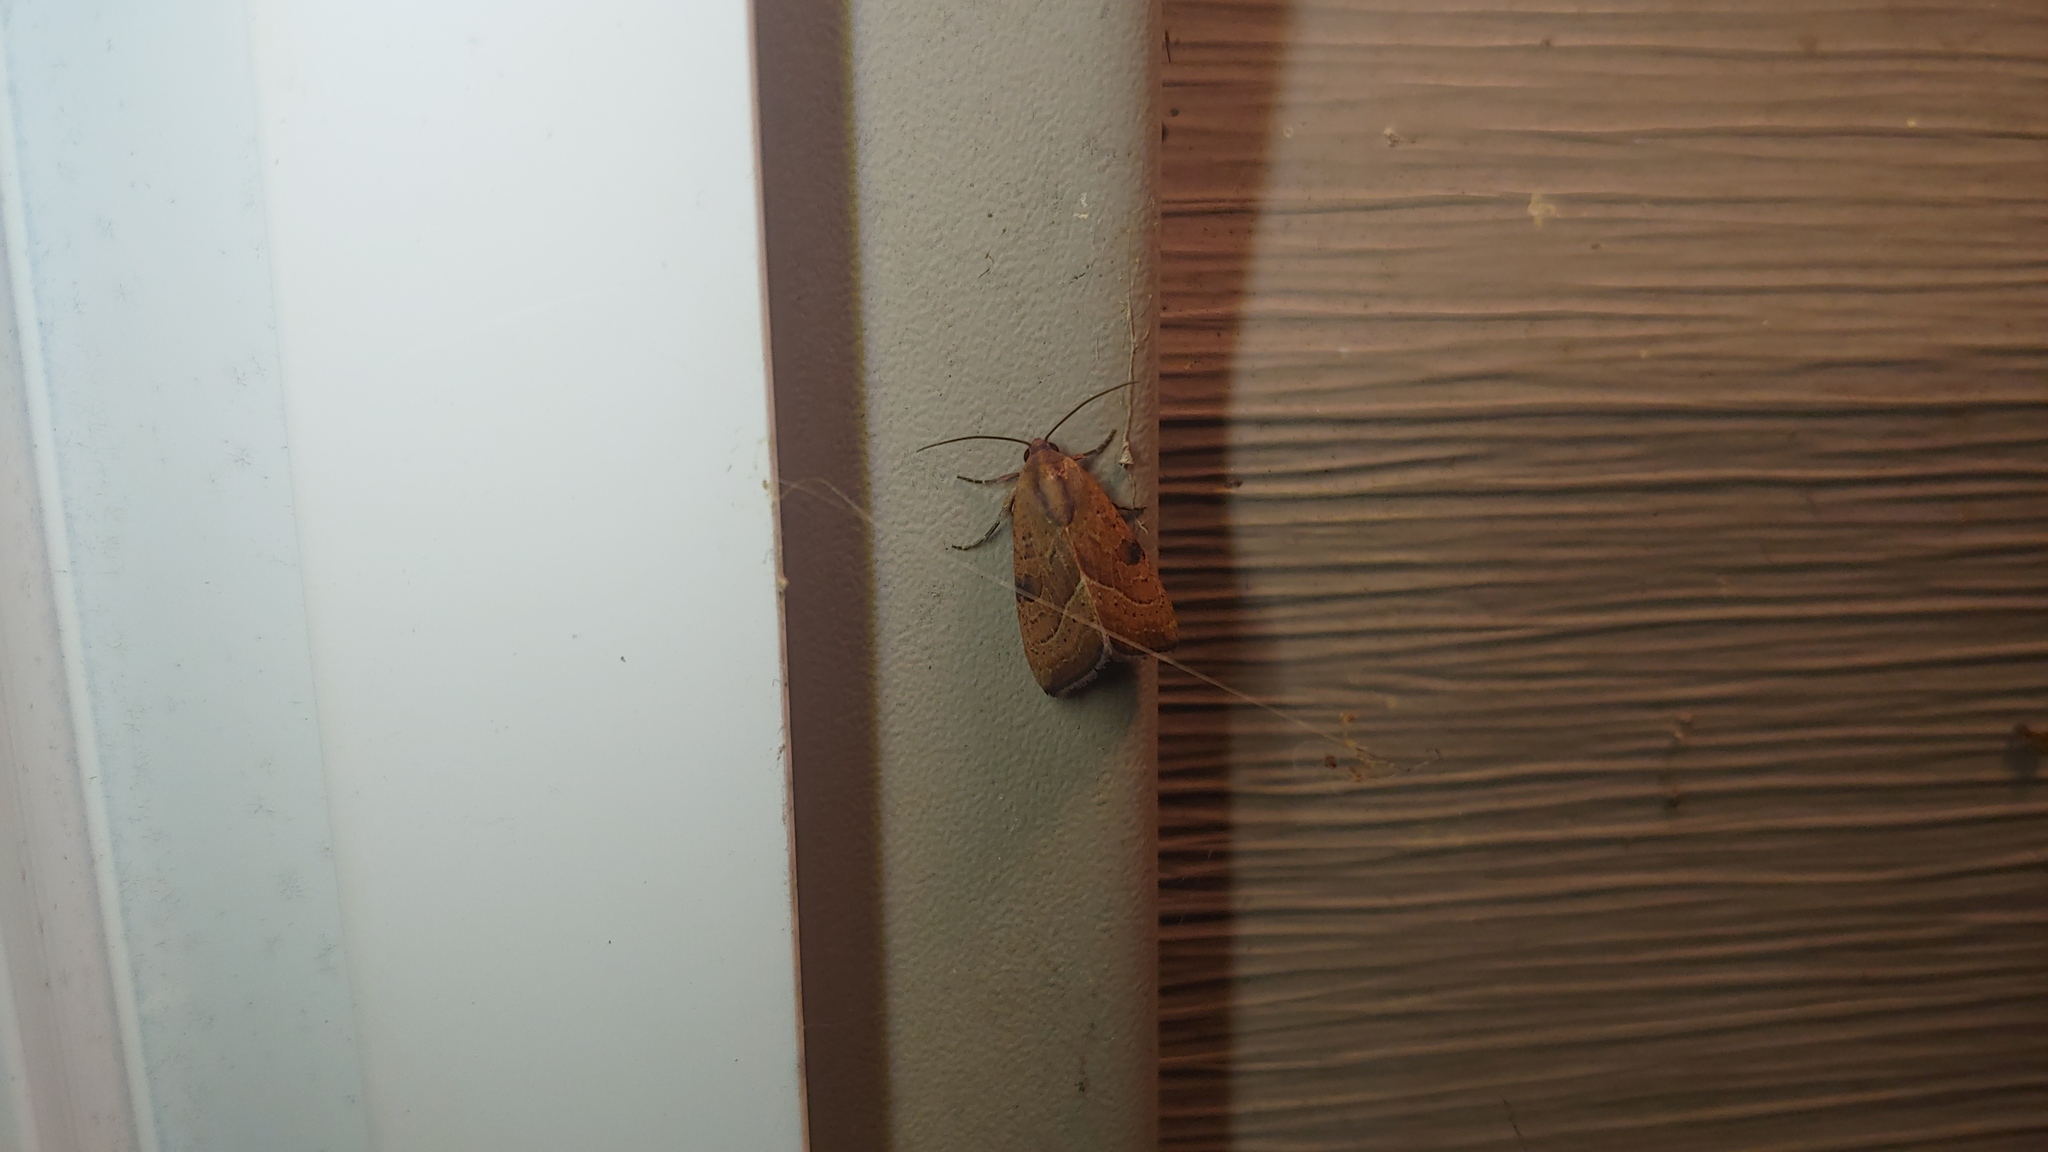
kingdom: Animalia
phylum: Arthropoda
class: Insecta
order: Lepidoptera
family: Noctuidae
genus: Galgula
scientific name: Galgula partita
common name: Wedgeling
